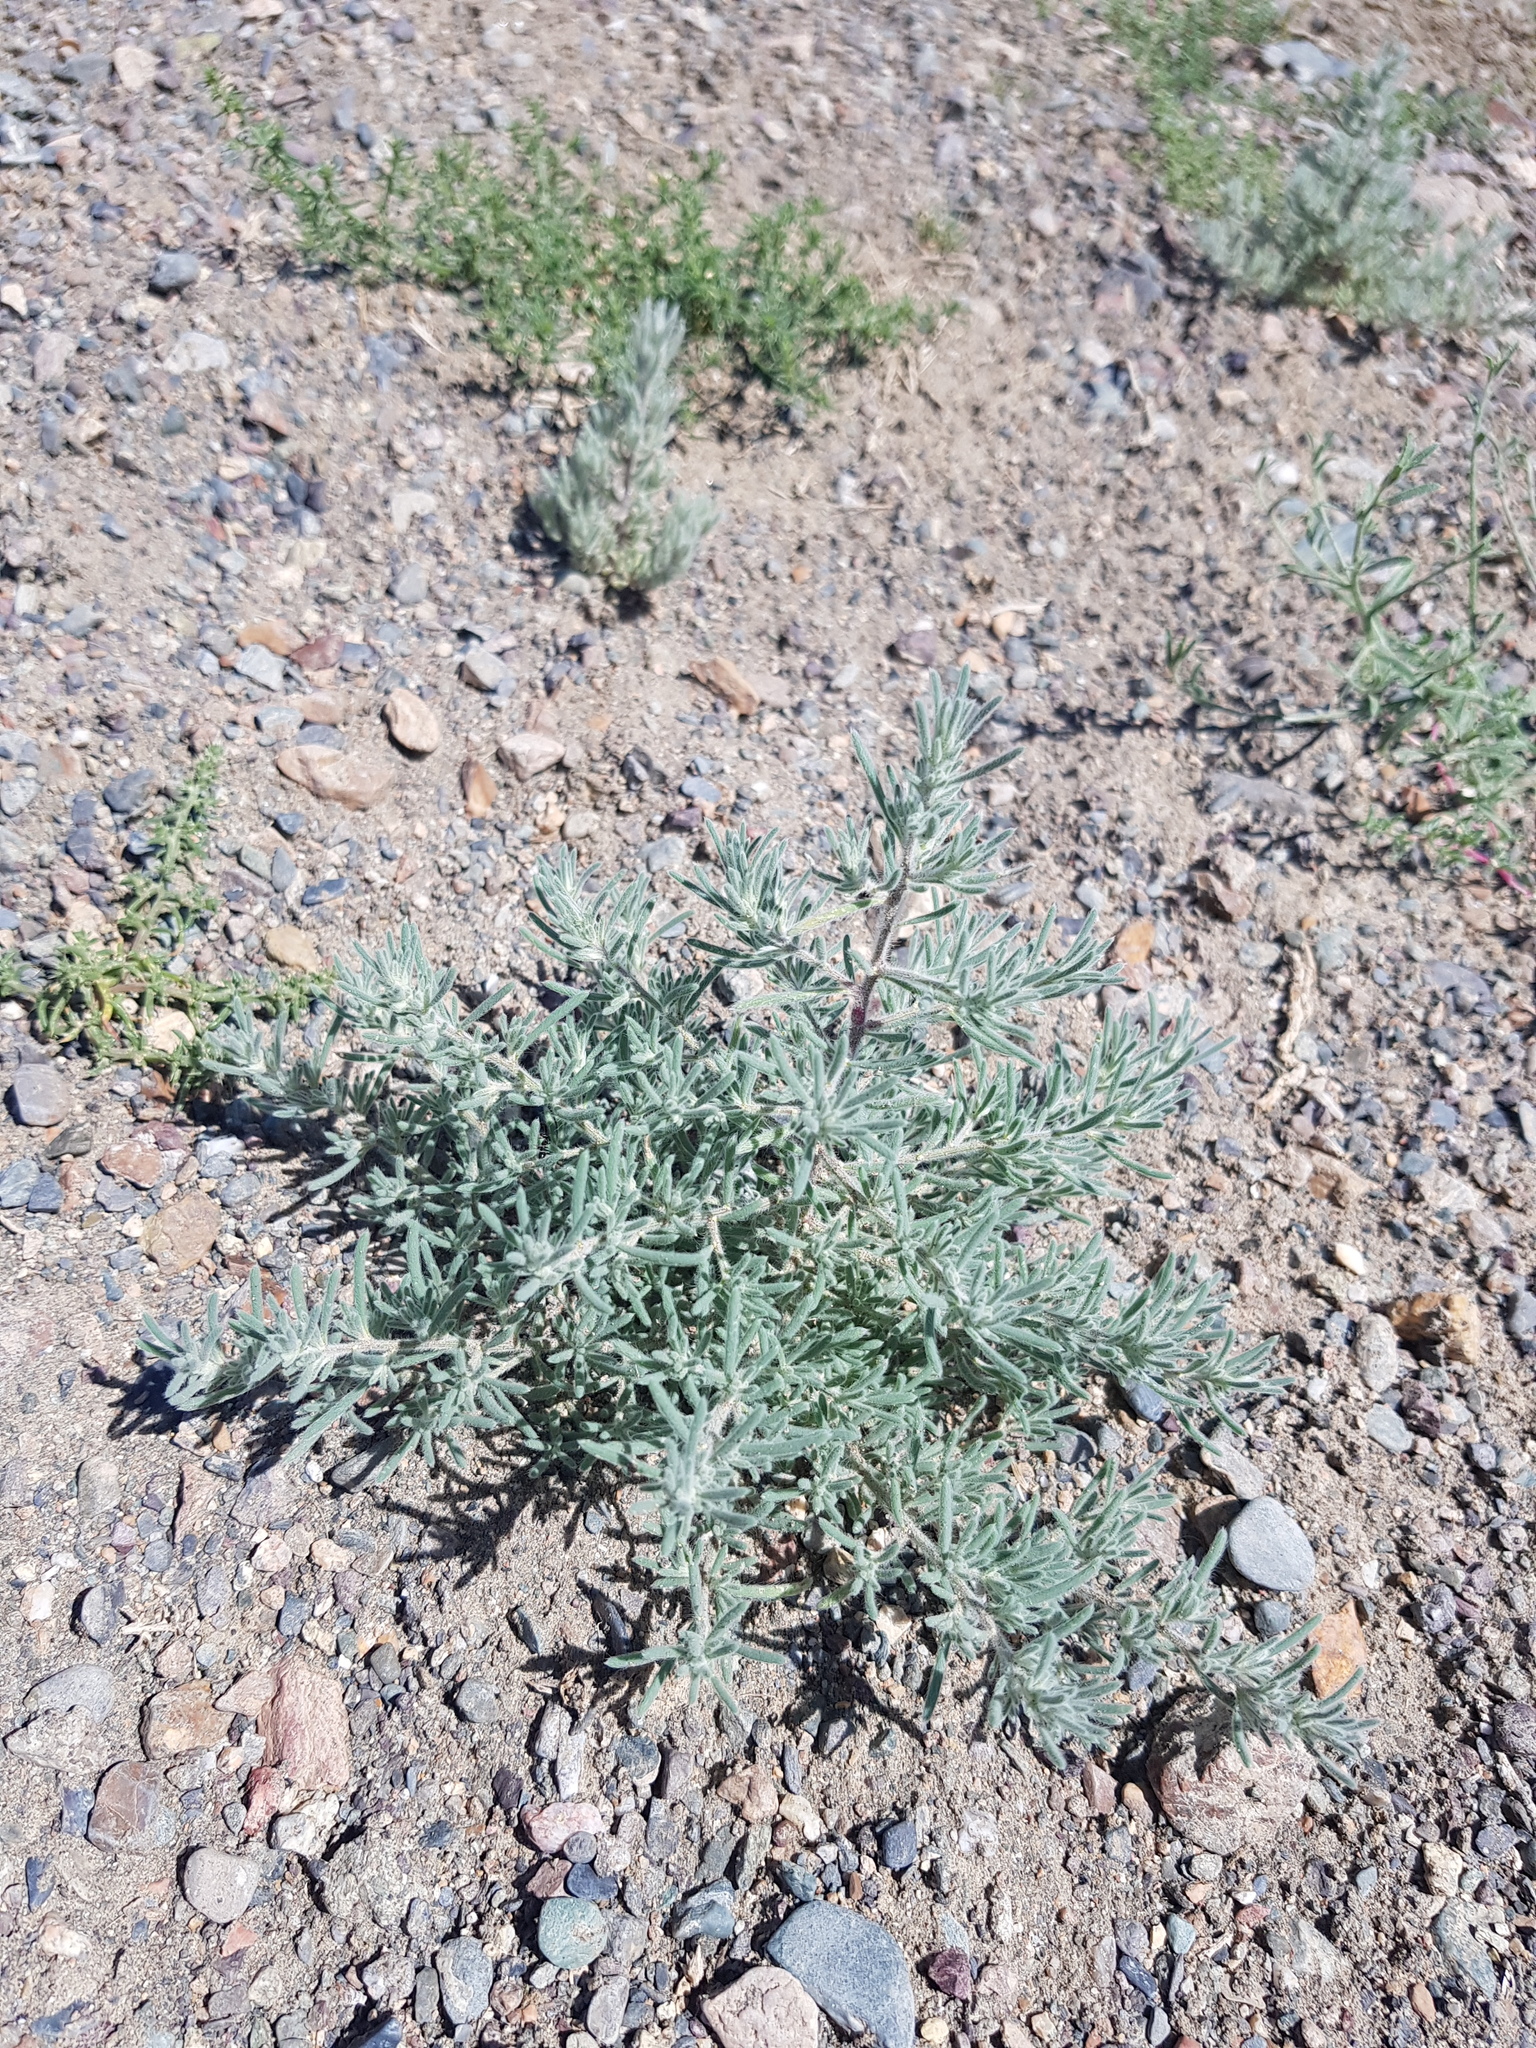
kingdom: Plantae
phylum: Tracheophyta
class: Magnoliopsida
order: Caryophyllales
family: Amaranthaceae
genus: Grubovia
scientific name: Grubovia dasyphylla
